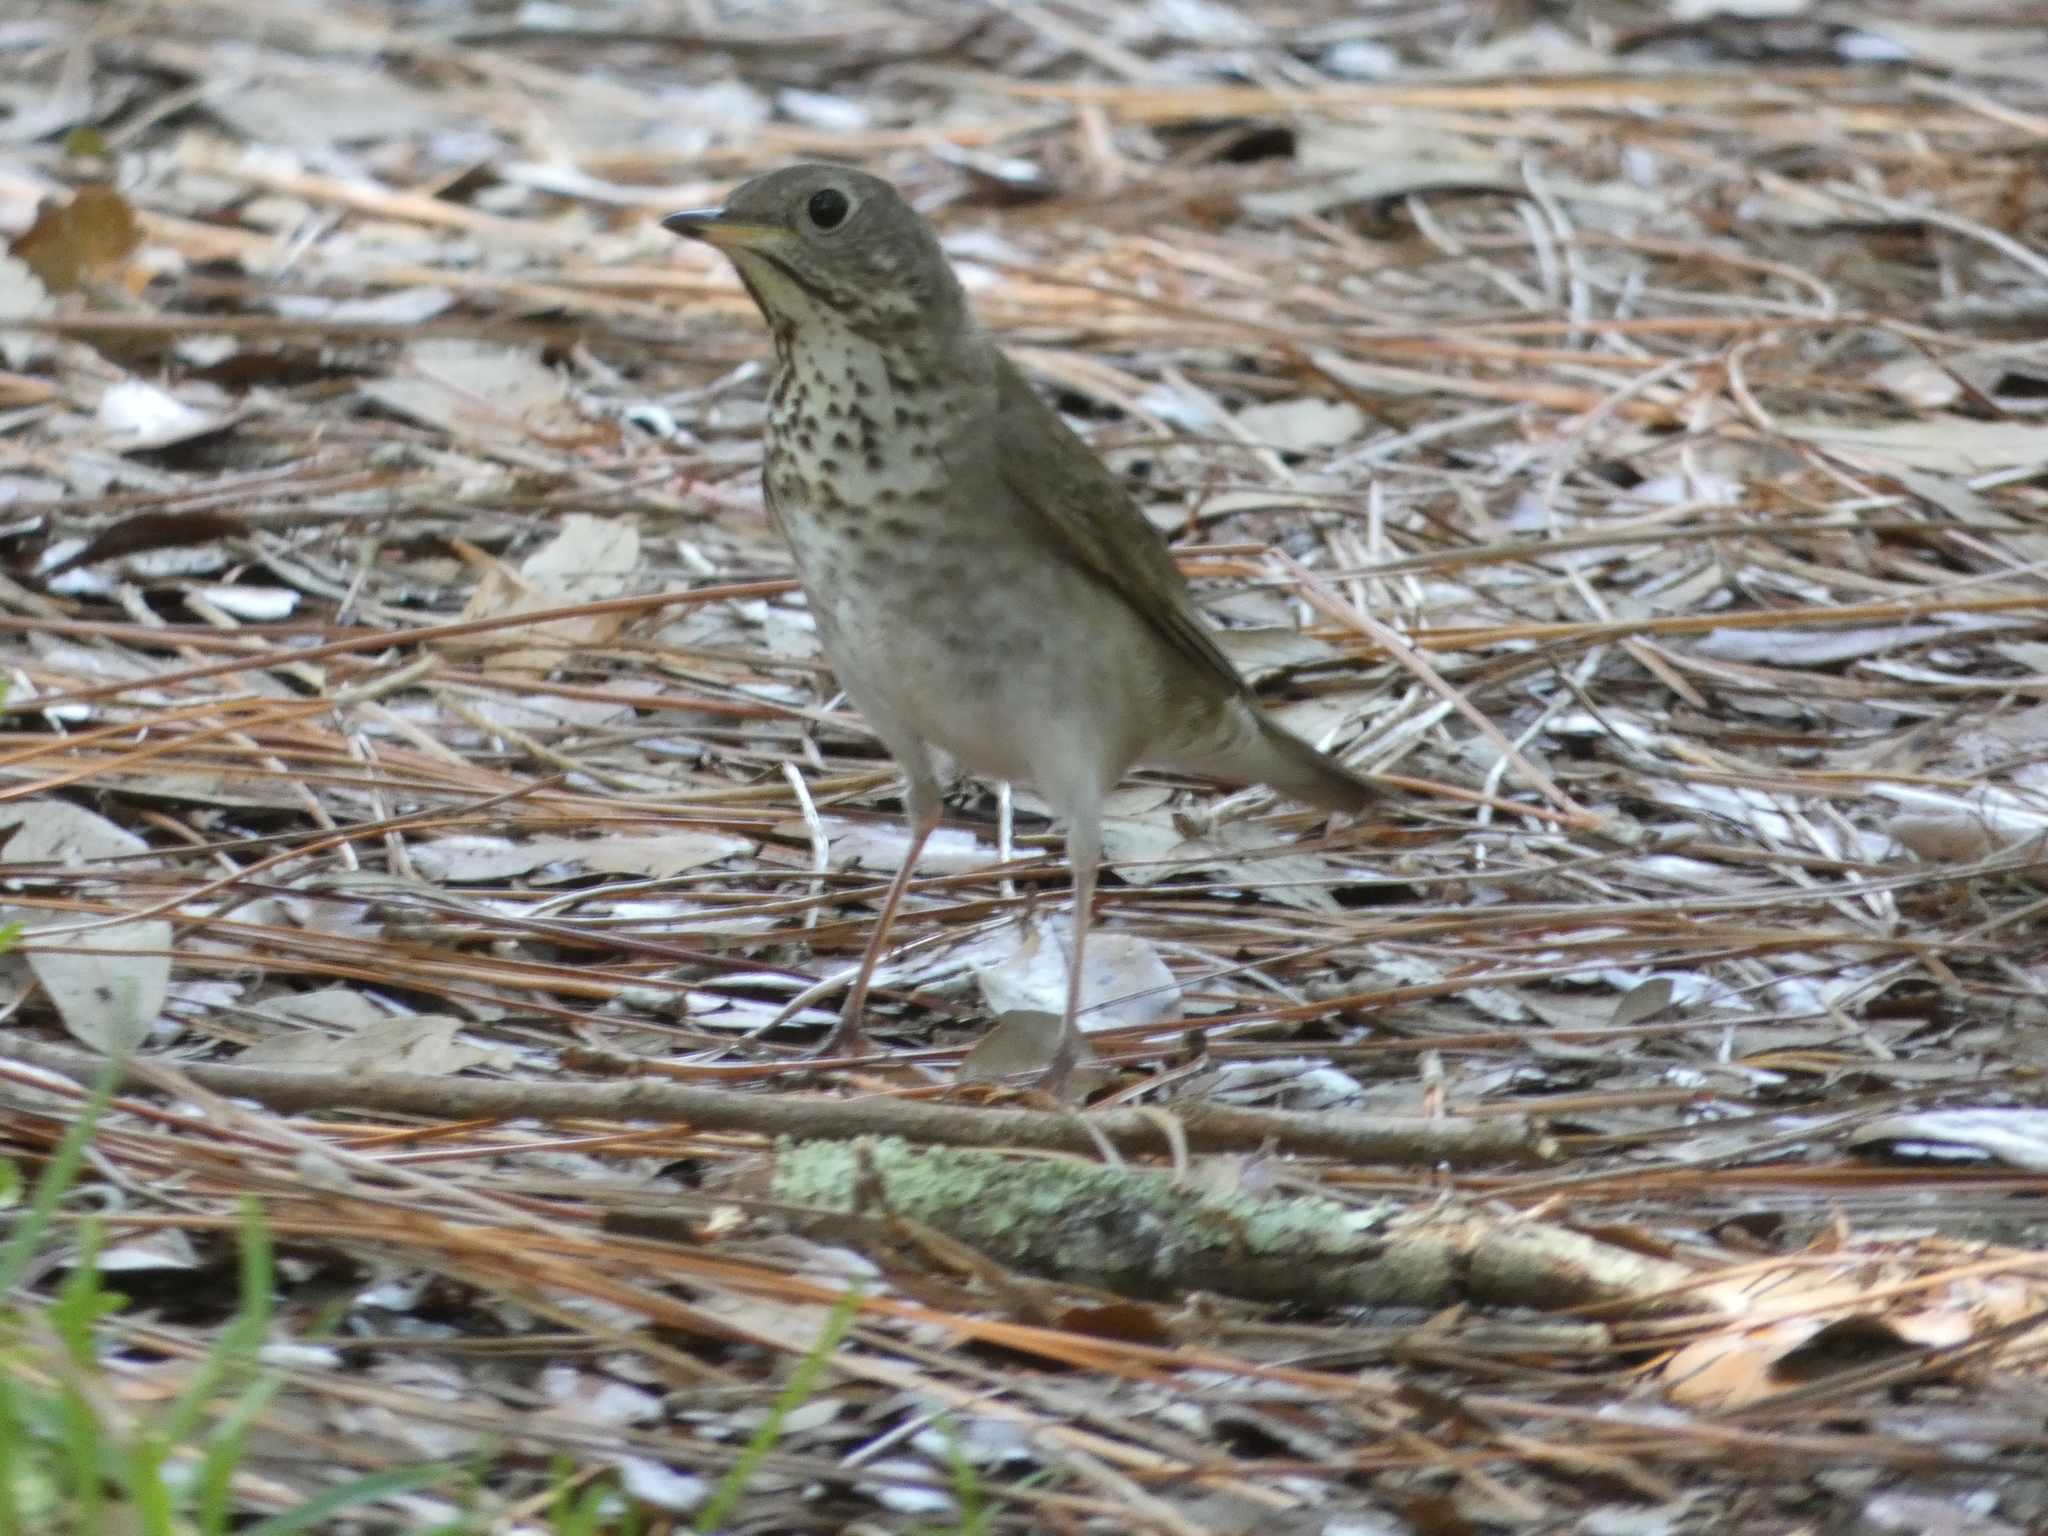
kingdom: Animalia
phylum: Chordata
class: Aves
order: Passeriformes
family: Turdidae
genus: Catharus
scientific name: Catharus minimus
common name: Grey-cheeked thrush
